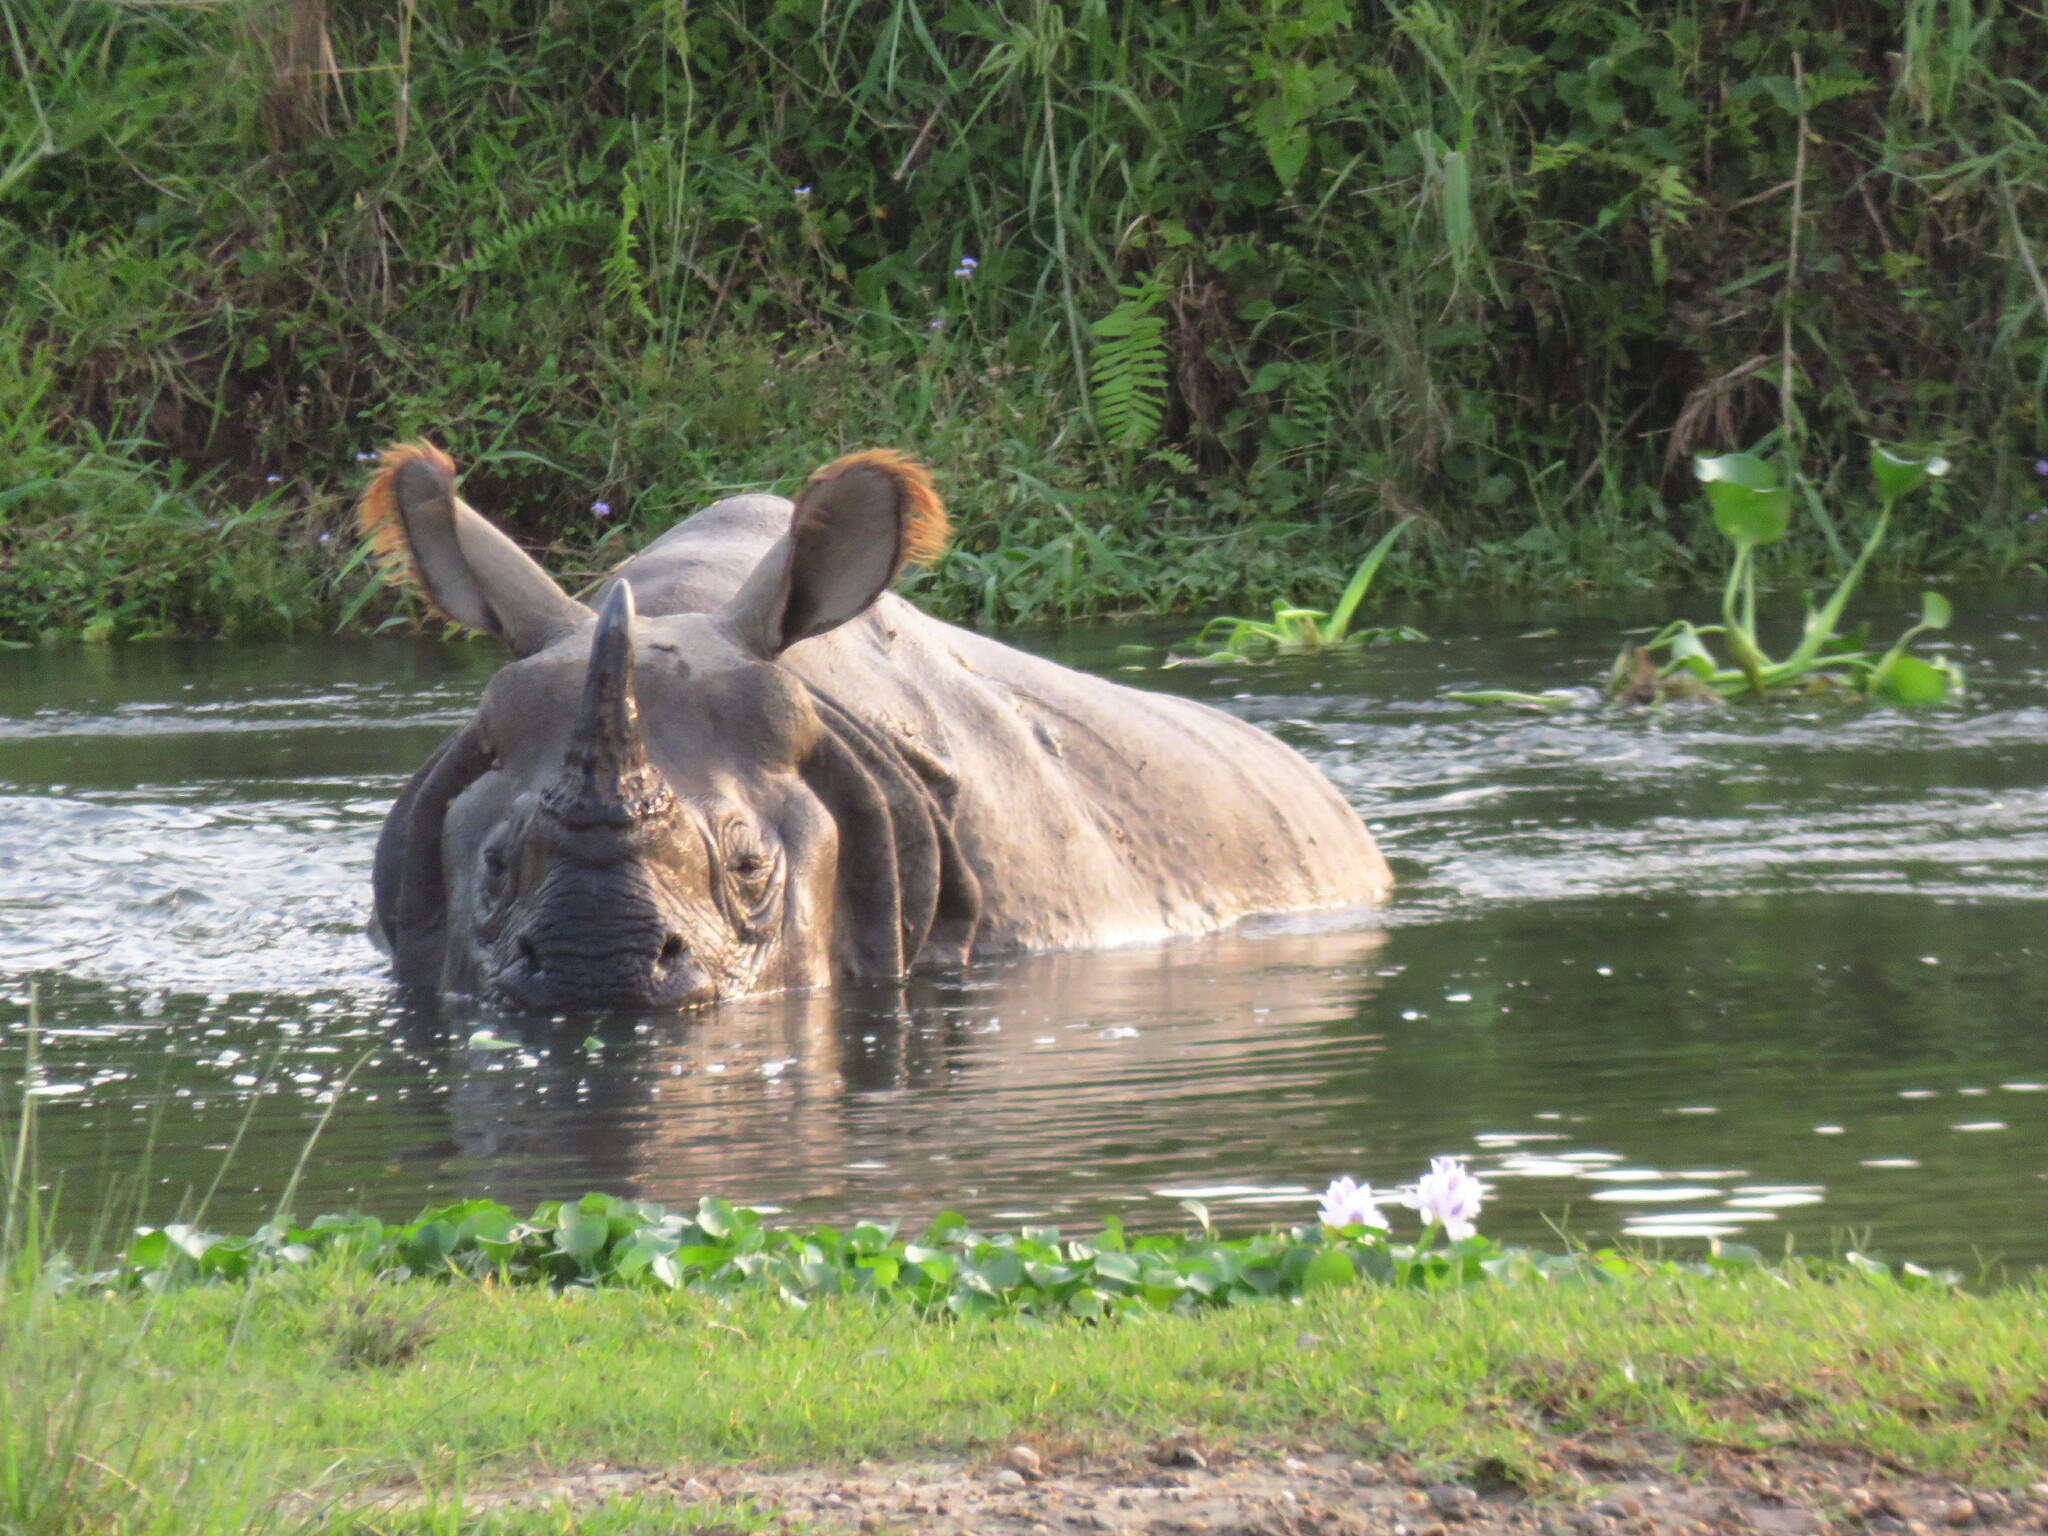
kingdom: Animalia
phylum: Chordata
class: Mammalia
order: Perissodactyla
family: Rhinocerotidae
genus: Rhinoceros
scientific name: Rhinoceros unicornis
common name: Indian rhinoceros
